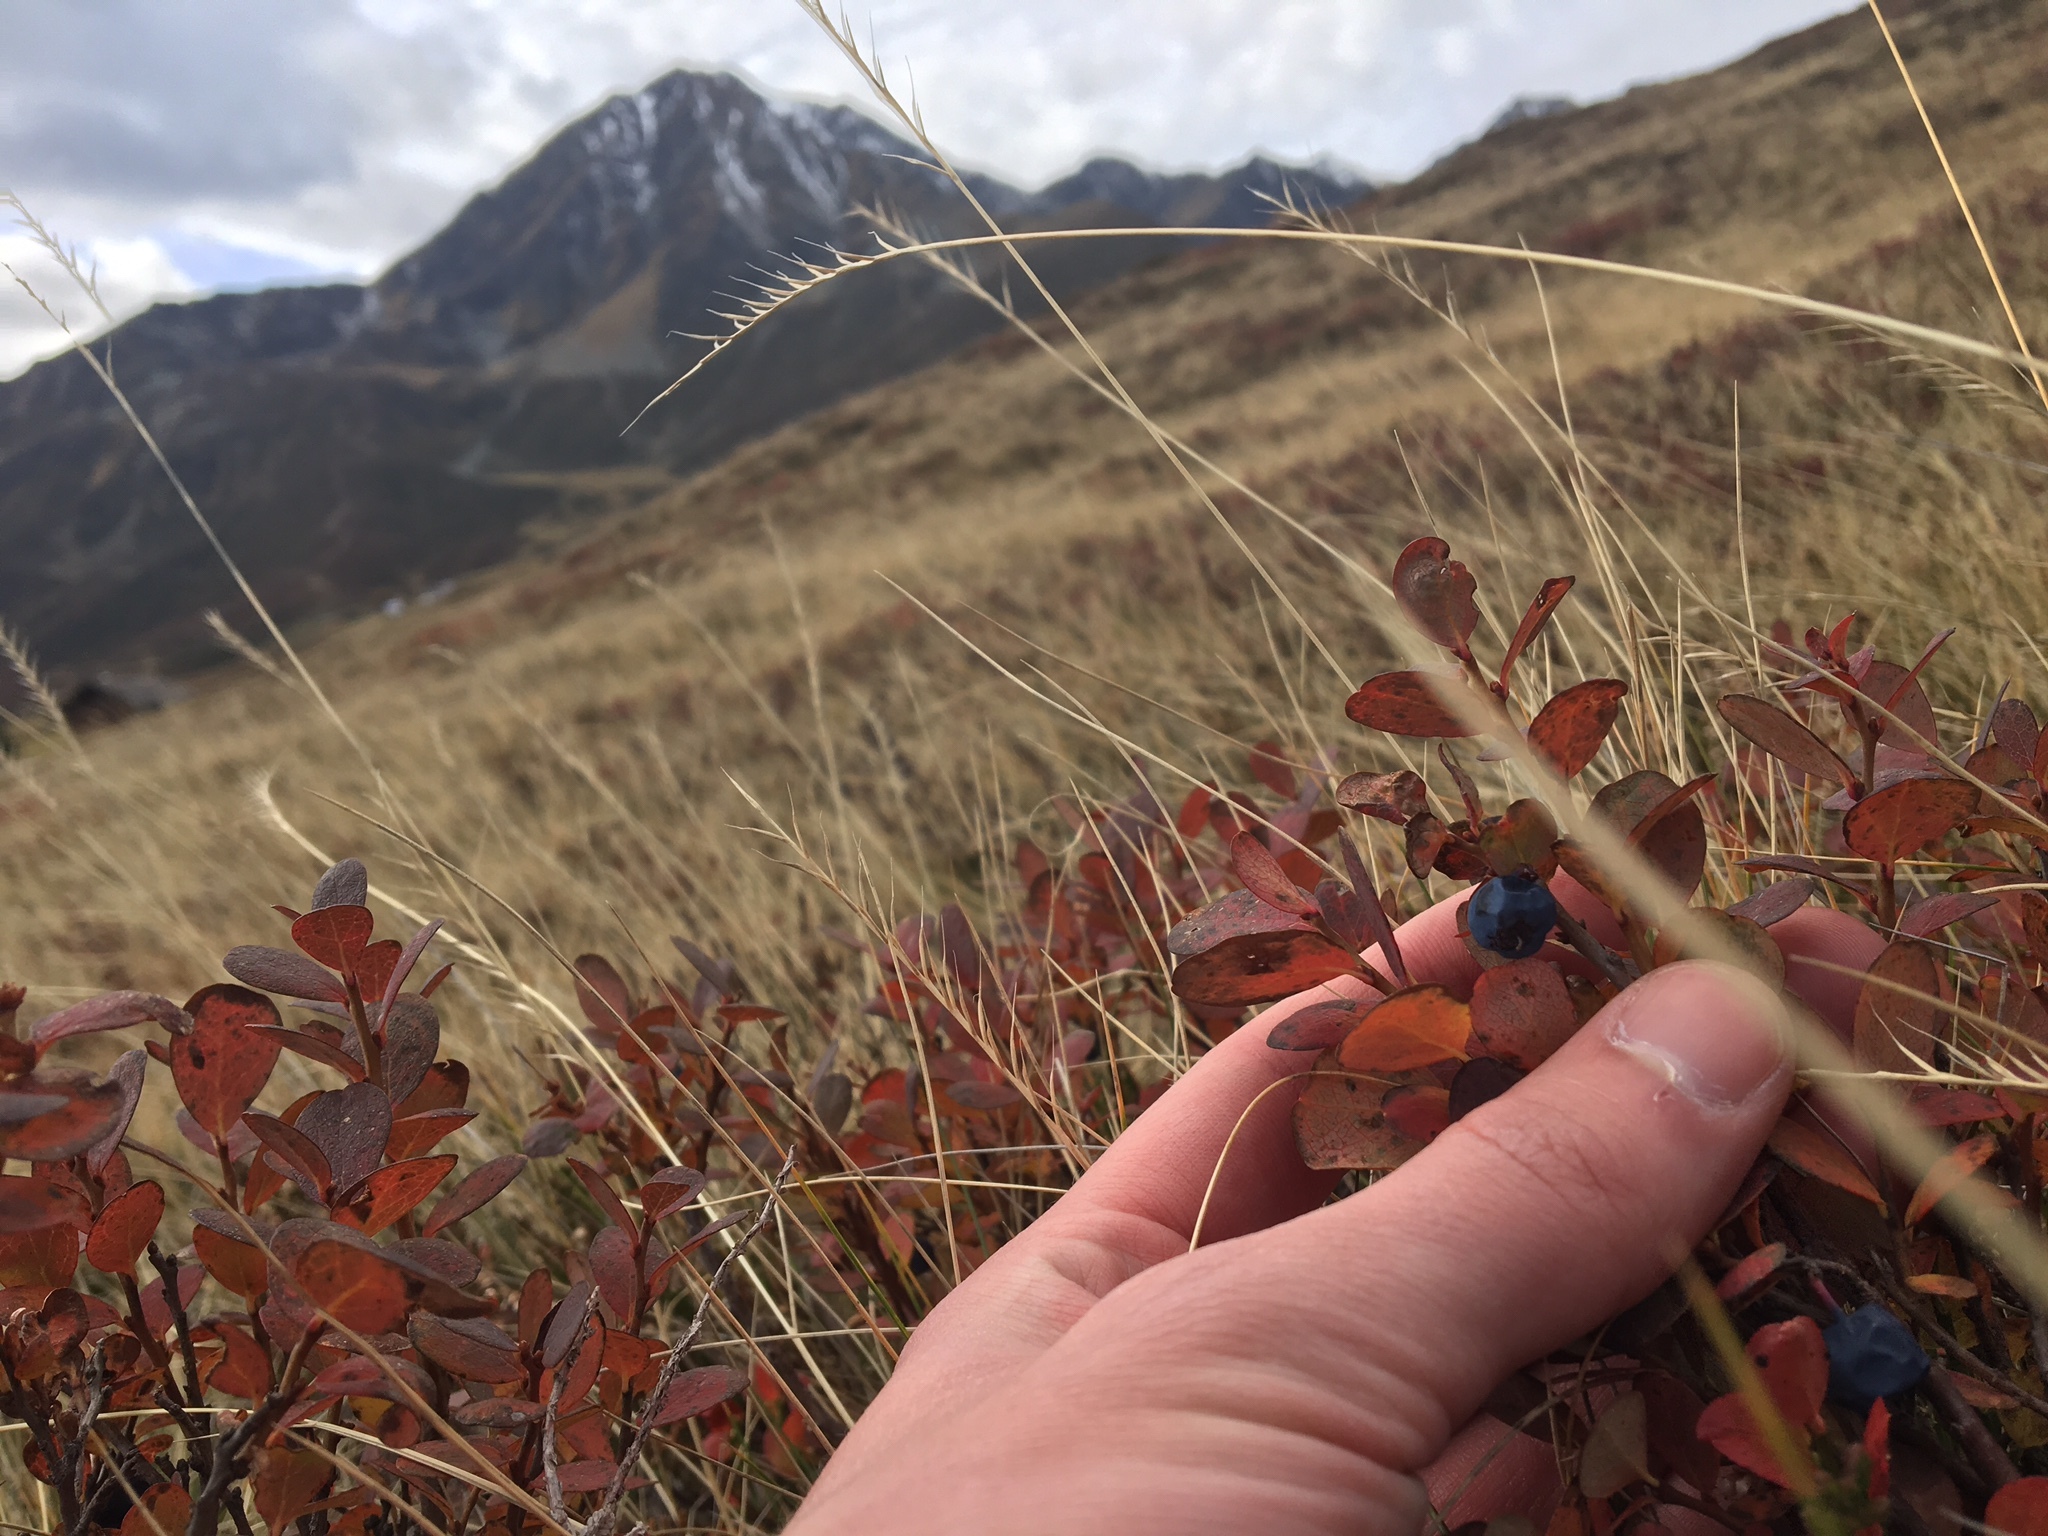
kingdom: Plantae
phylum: Tracheophyta
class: Magnoliopsida
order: Ericales
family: Ericaceae
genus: Vaccinium
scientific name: Vaccinium uliginosum
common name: Bog bilberry
